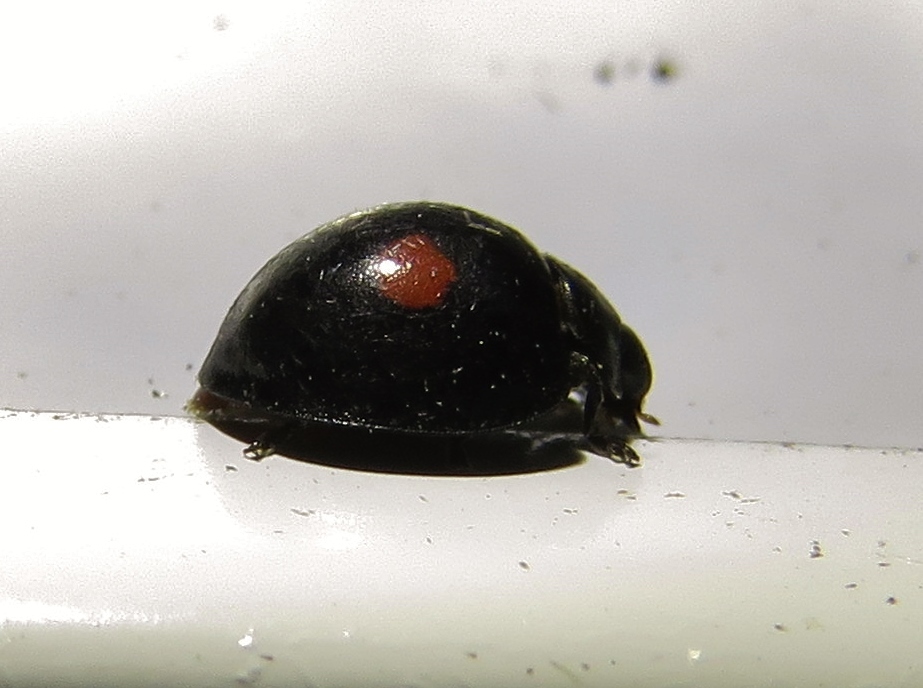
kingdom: Animalia
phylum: Arthropoda
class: Insecta
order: Coleoptera
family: Coccinellidae
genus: Chilocorus
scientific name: Chilocorus stigma
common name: Twicestabbed lady beetle
